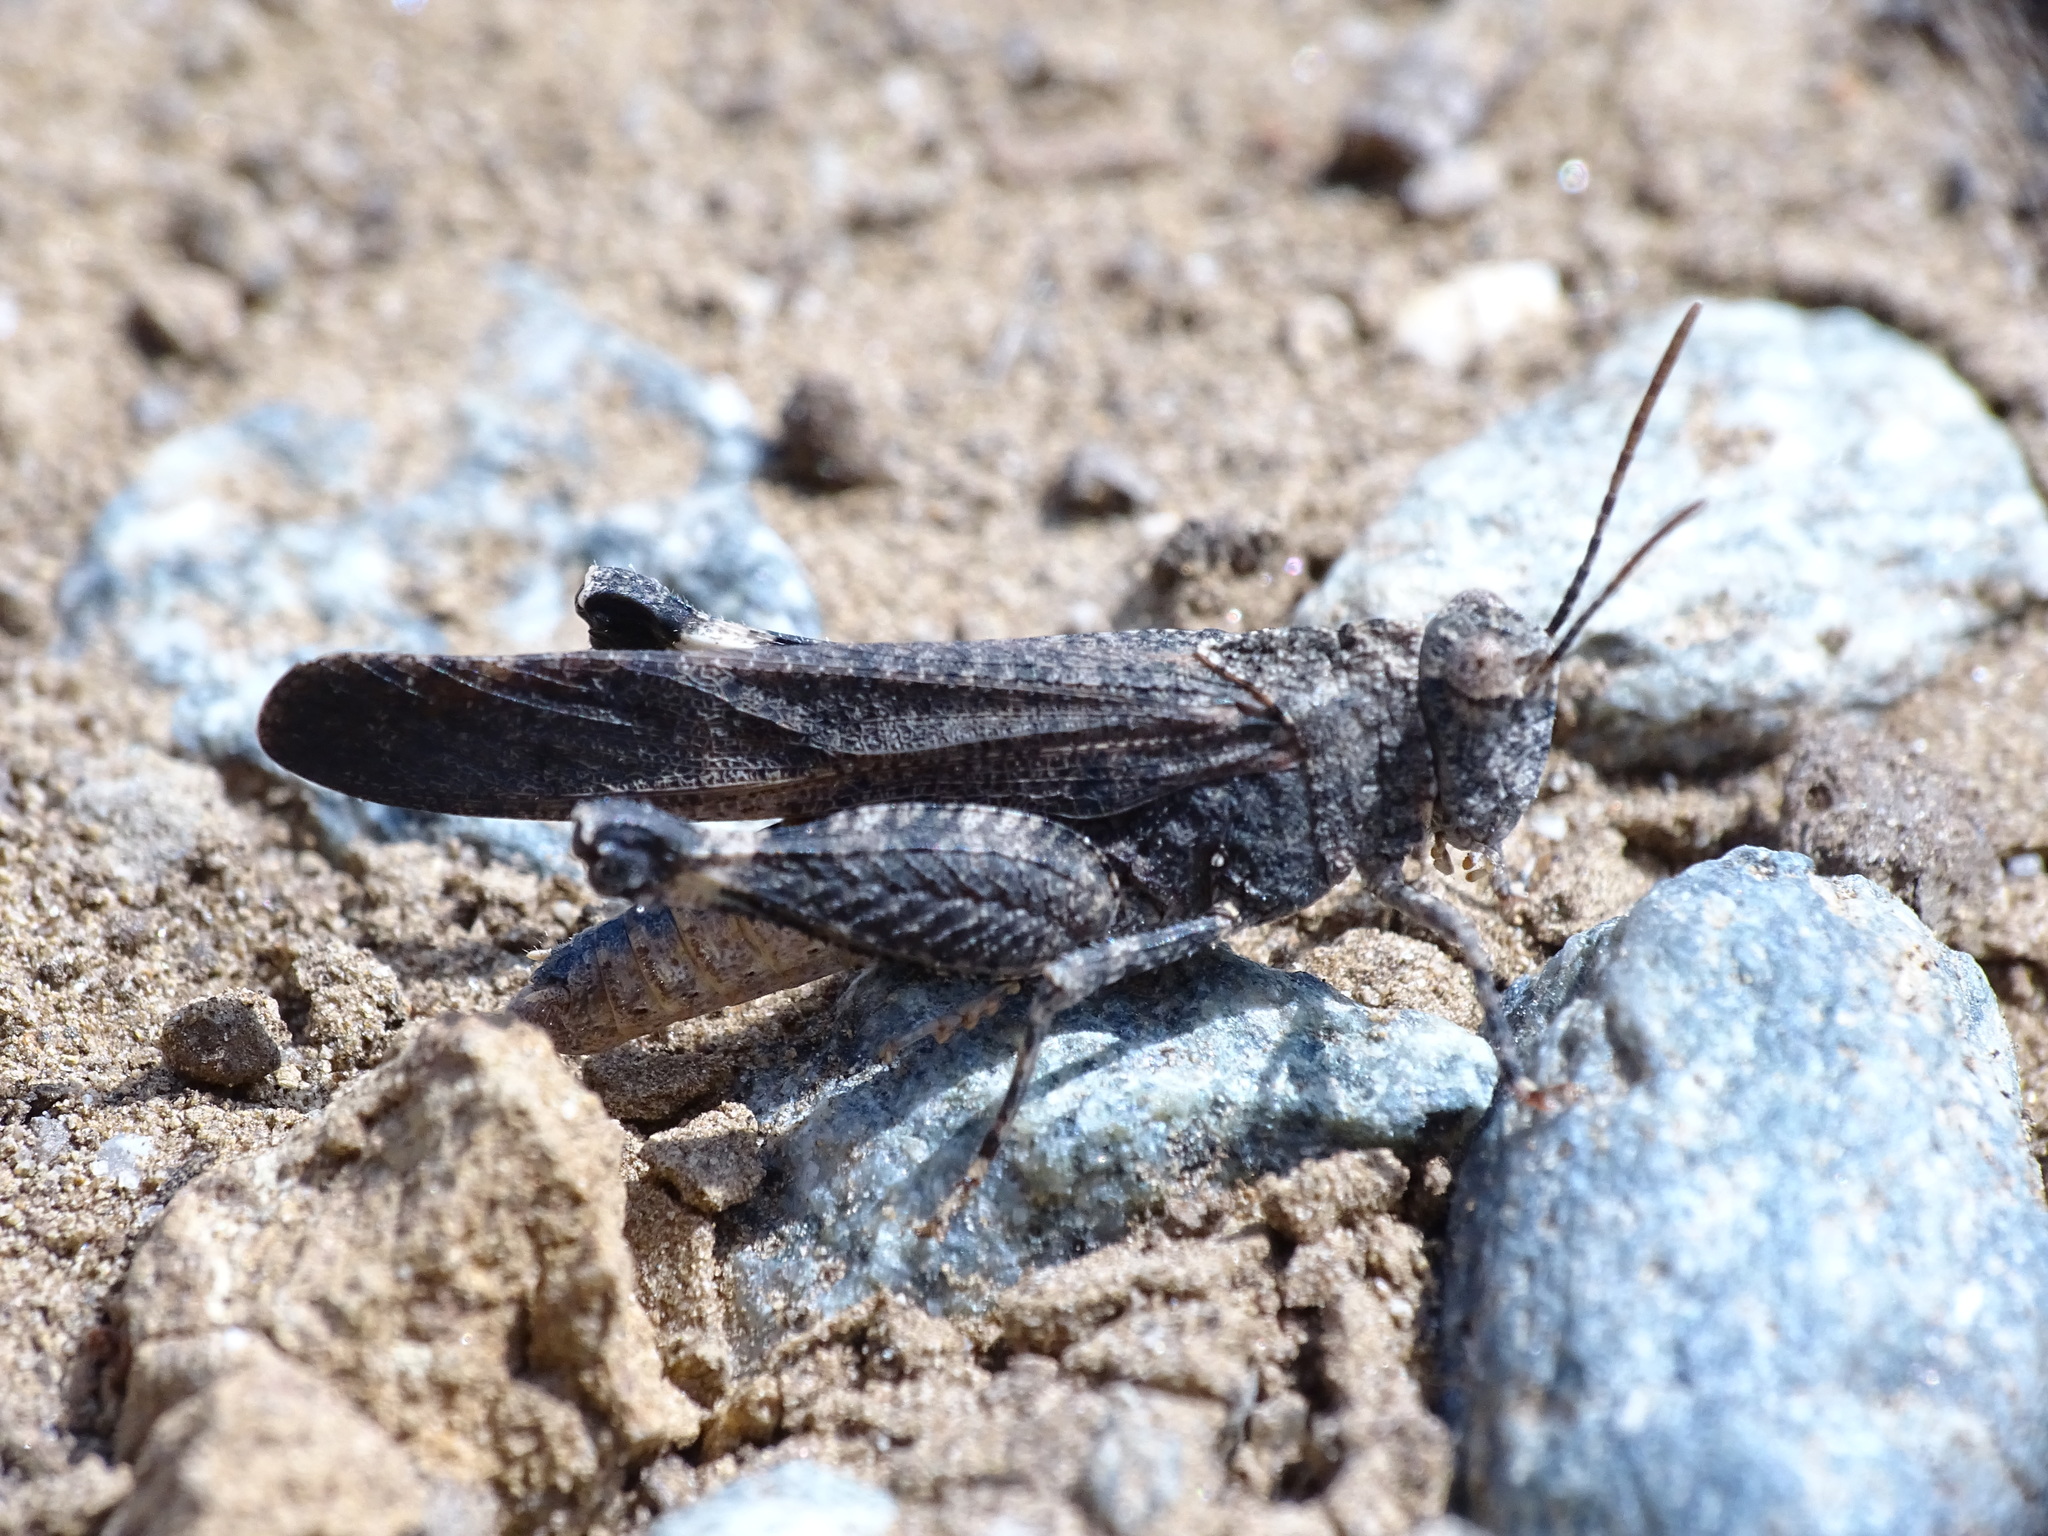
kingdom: Animalia
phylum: Arthropoda
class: Insecta
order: Orthoptera
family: Acrididae
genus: Lactista
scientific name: Lactista gibbosus
